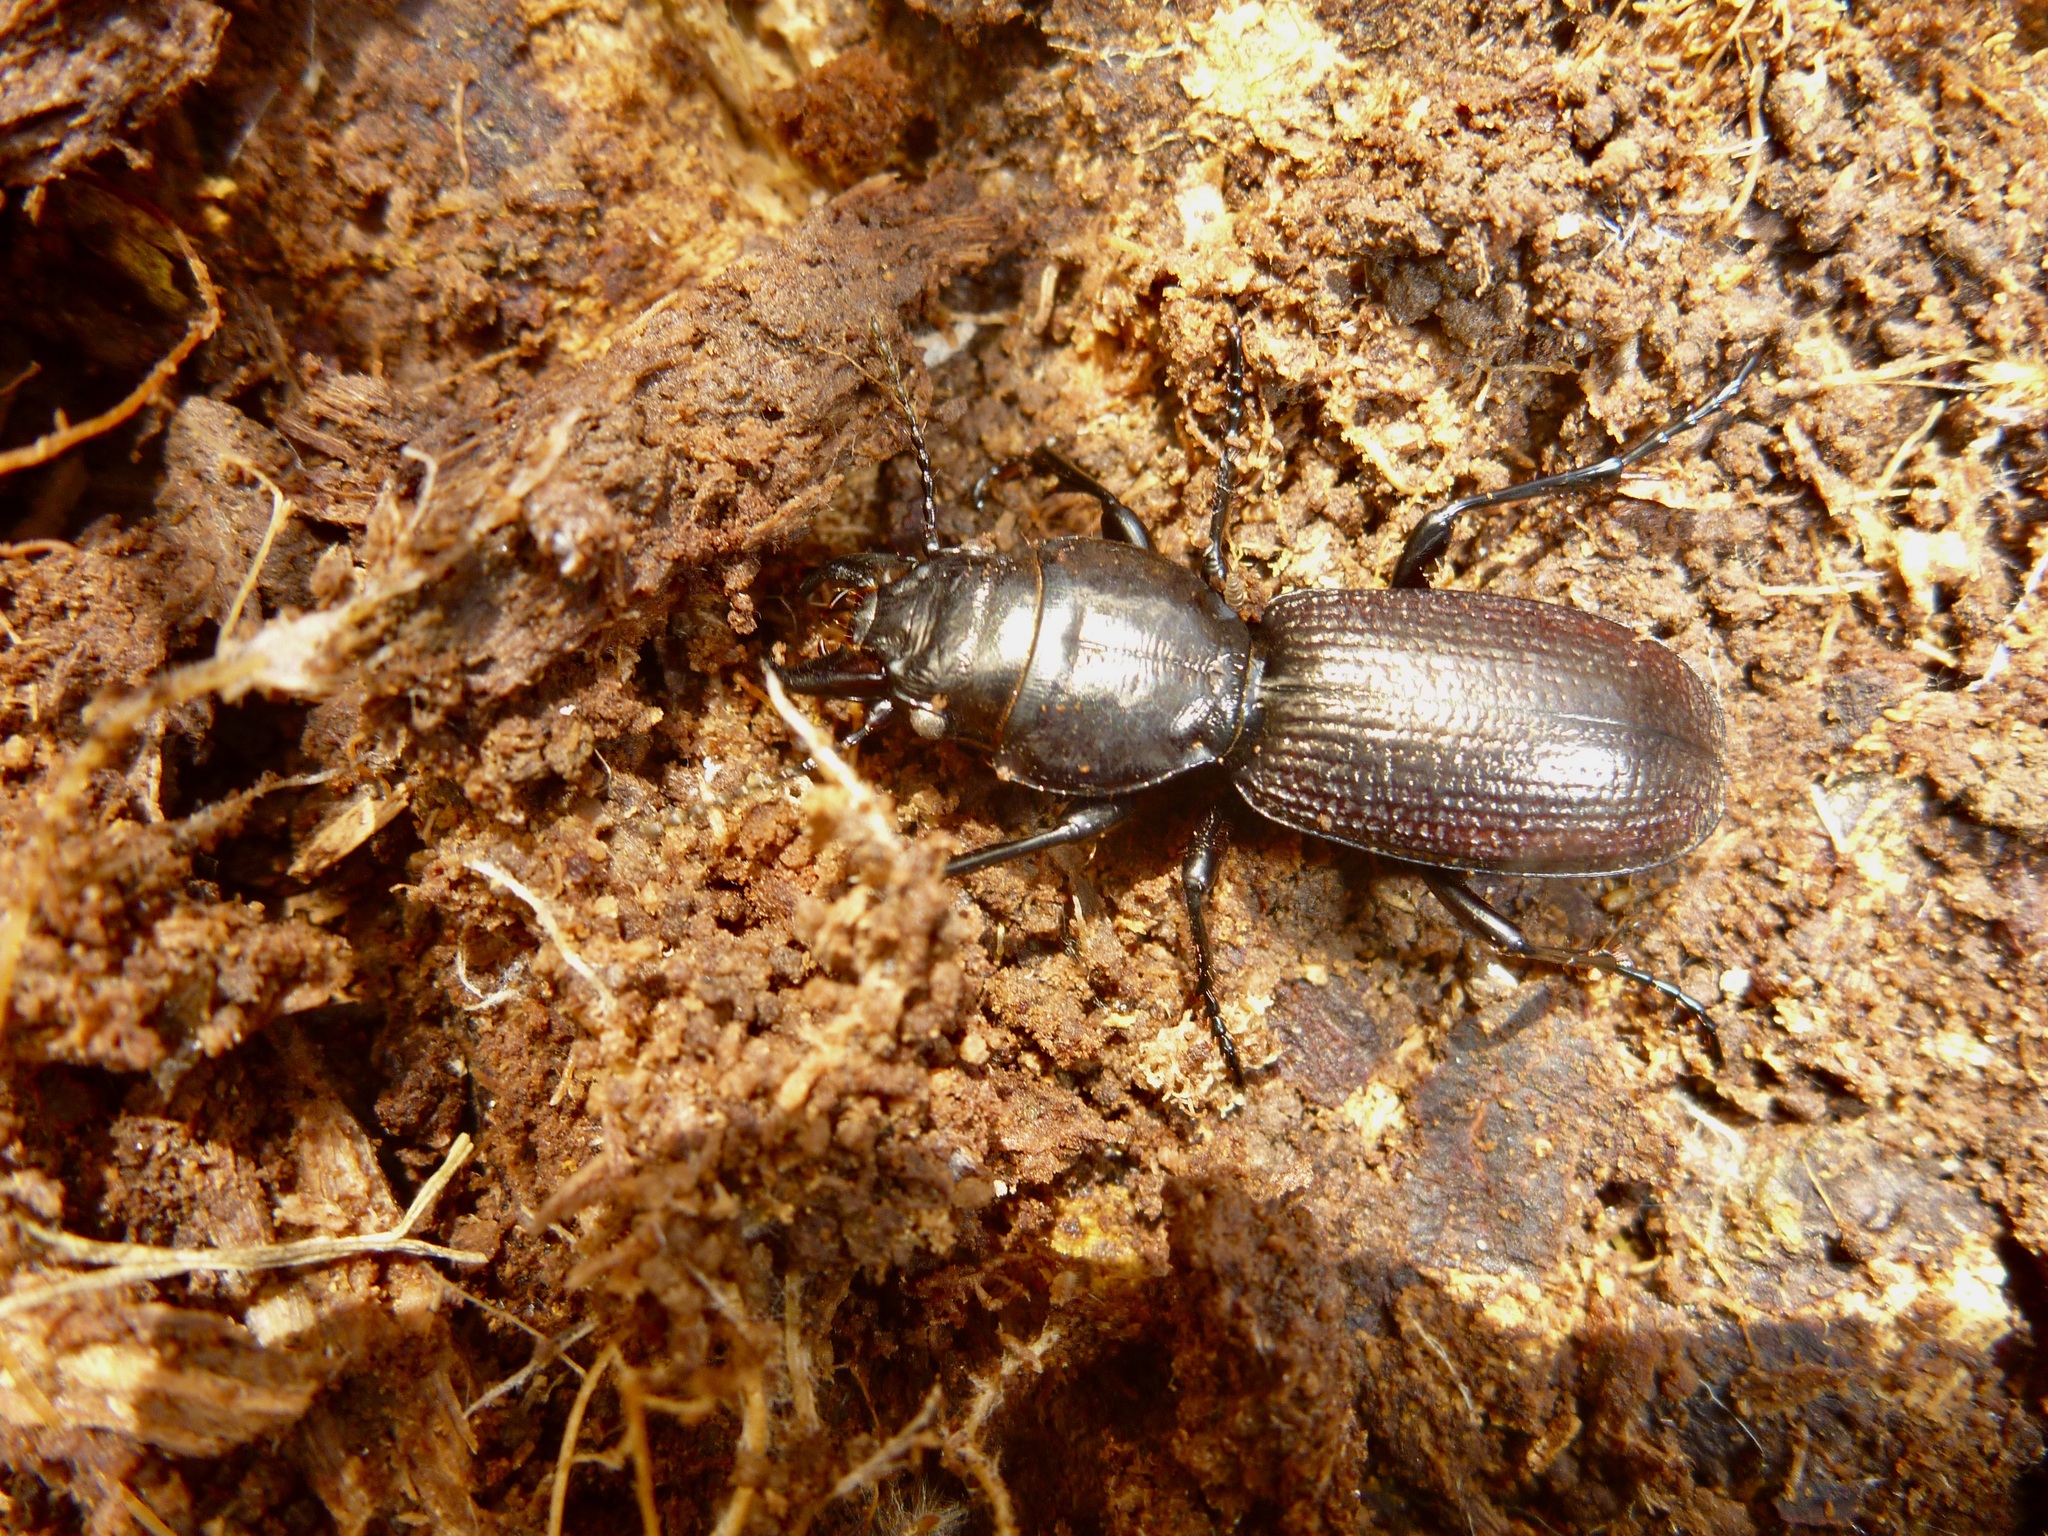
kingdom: Animalia
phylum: Arthropoda
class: Insecta
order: Coleoptera
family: Carabidae
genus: Mecodema
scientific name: Mecodema howittii
